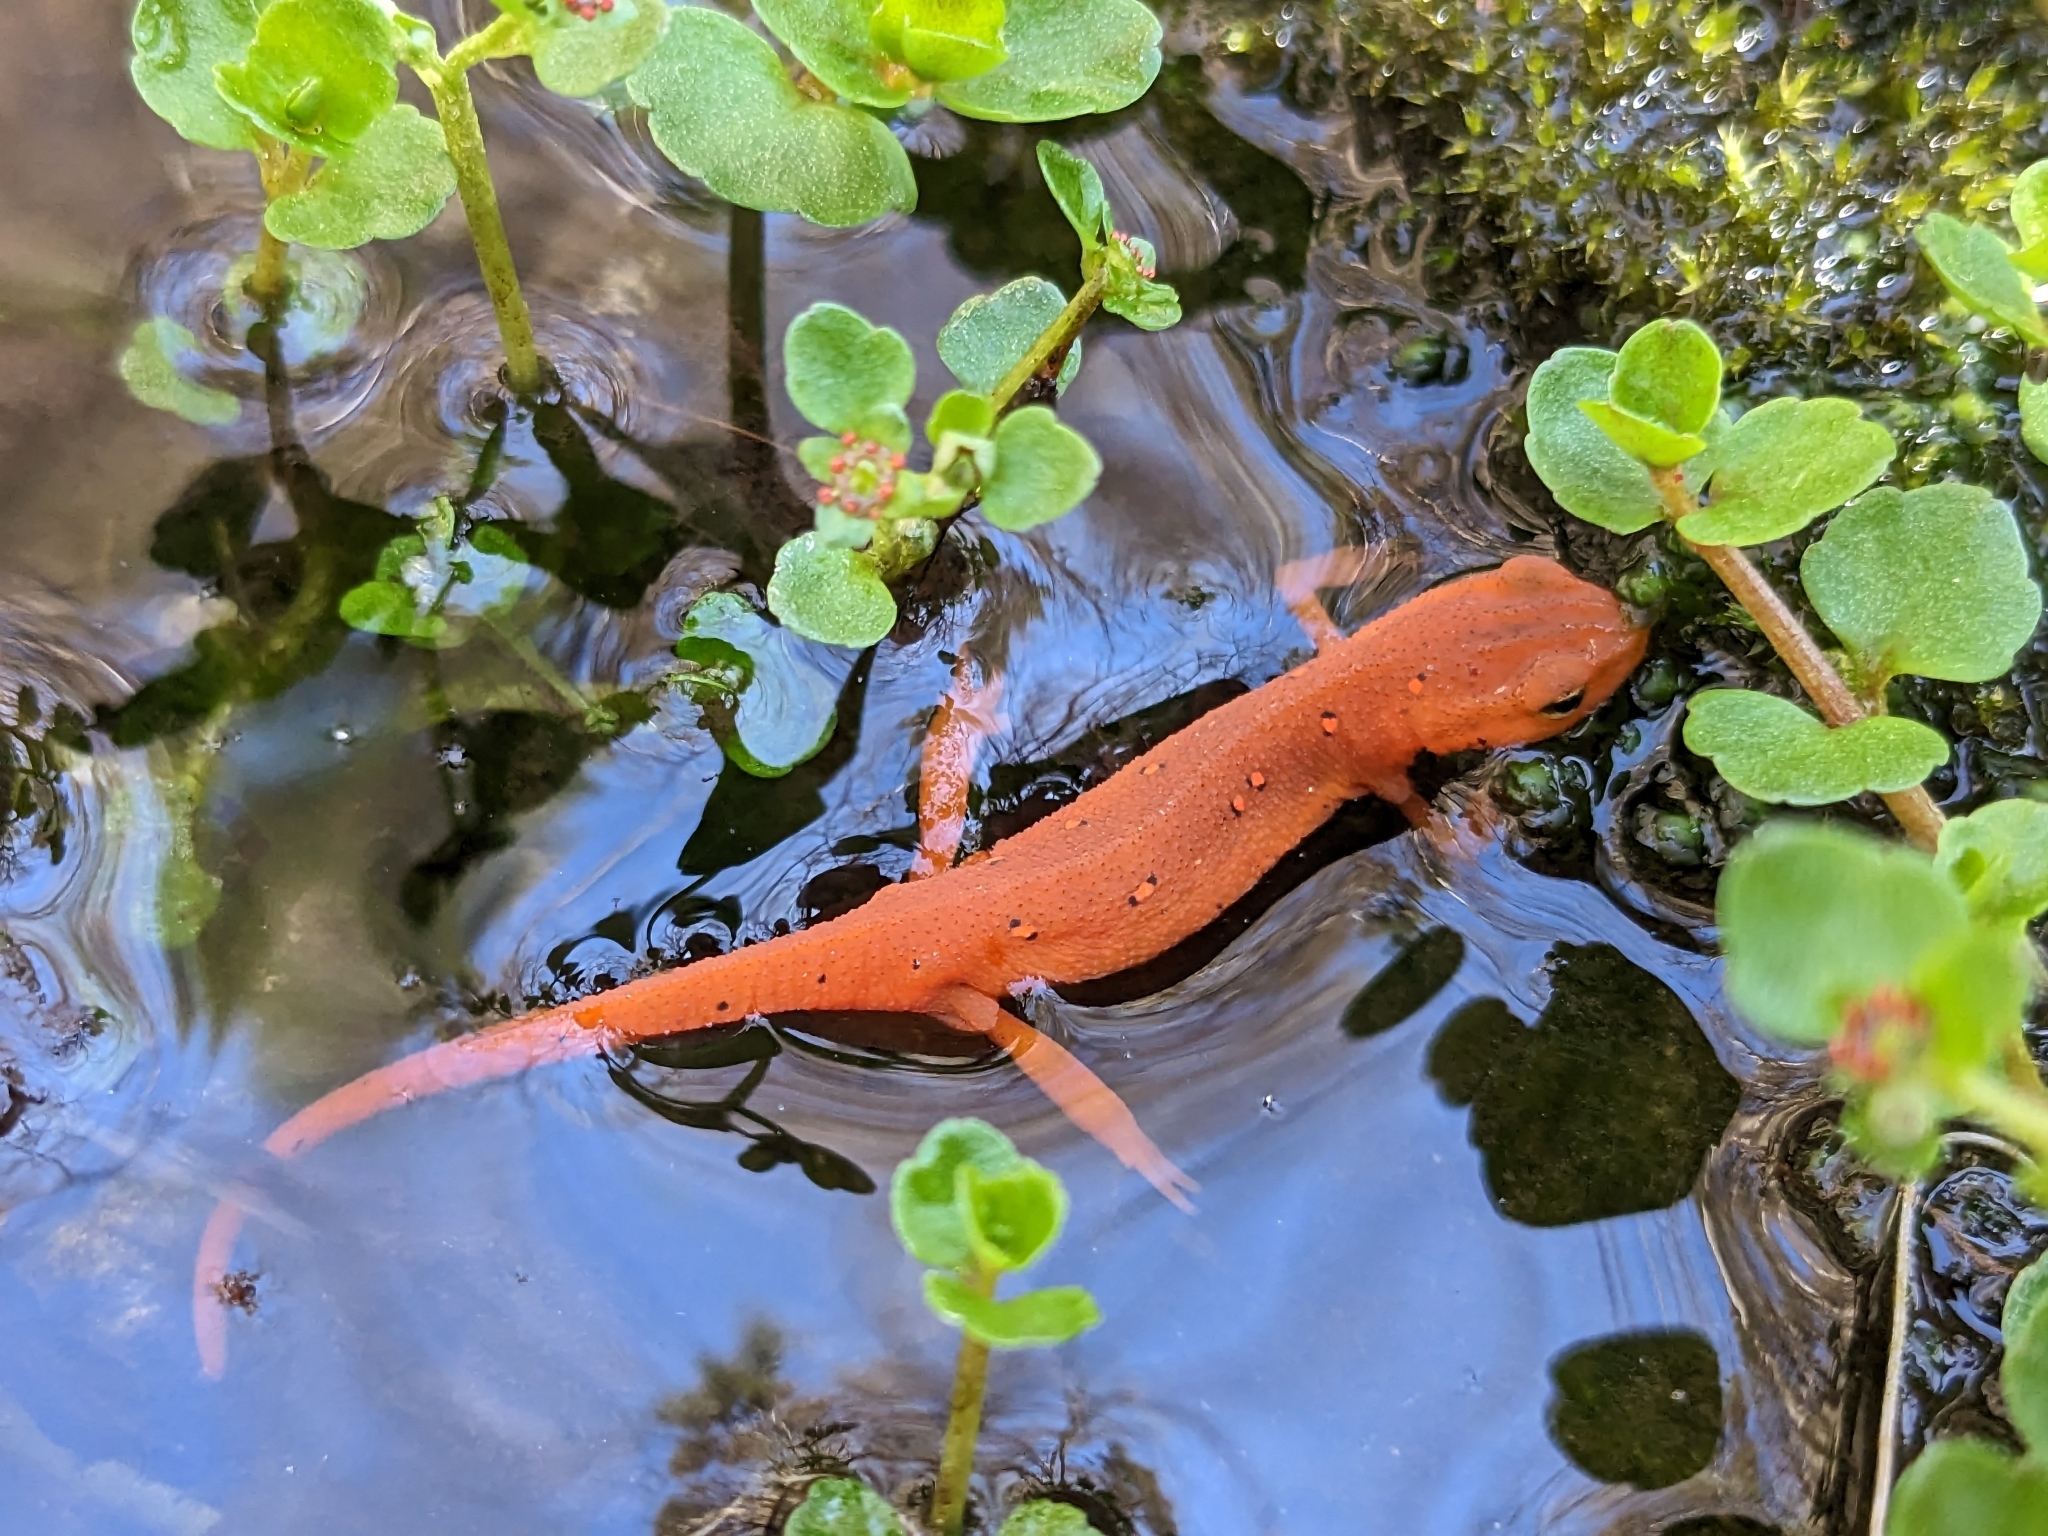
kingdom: Animalia
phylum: Chordata
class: Amphibia
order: Caudata
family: Salamandridae
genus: Notophthalmus
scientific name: Notophthalmus viridescens
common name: Eastern newt
